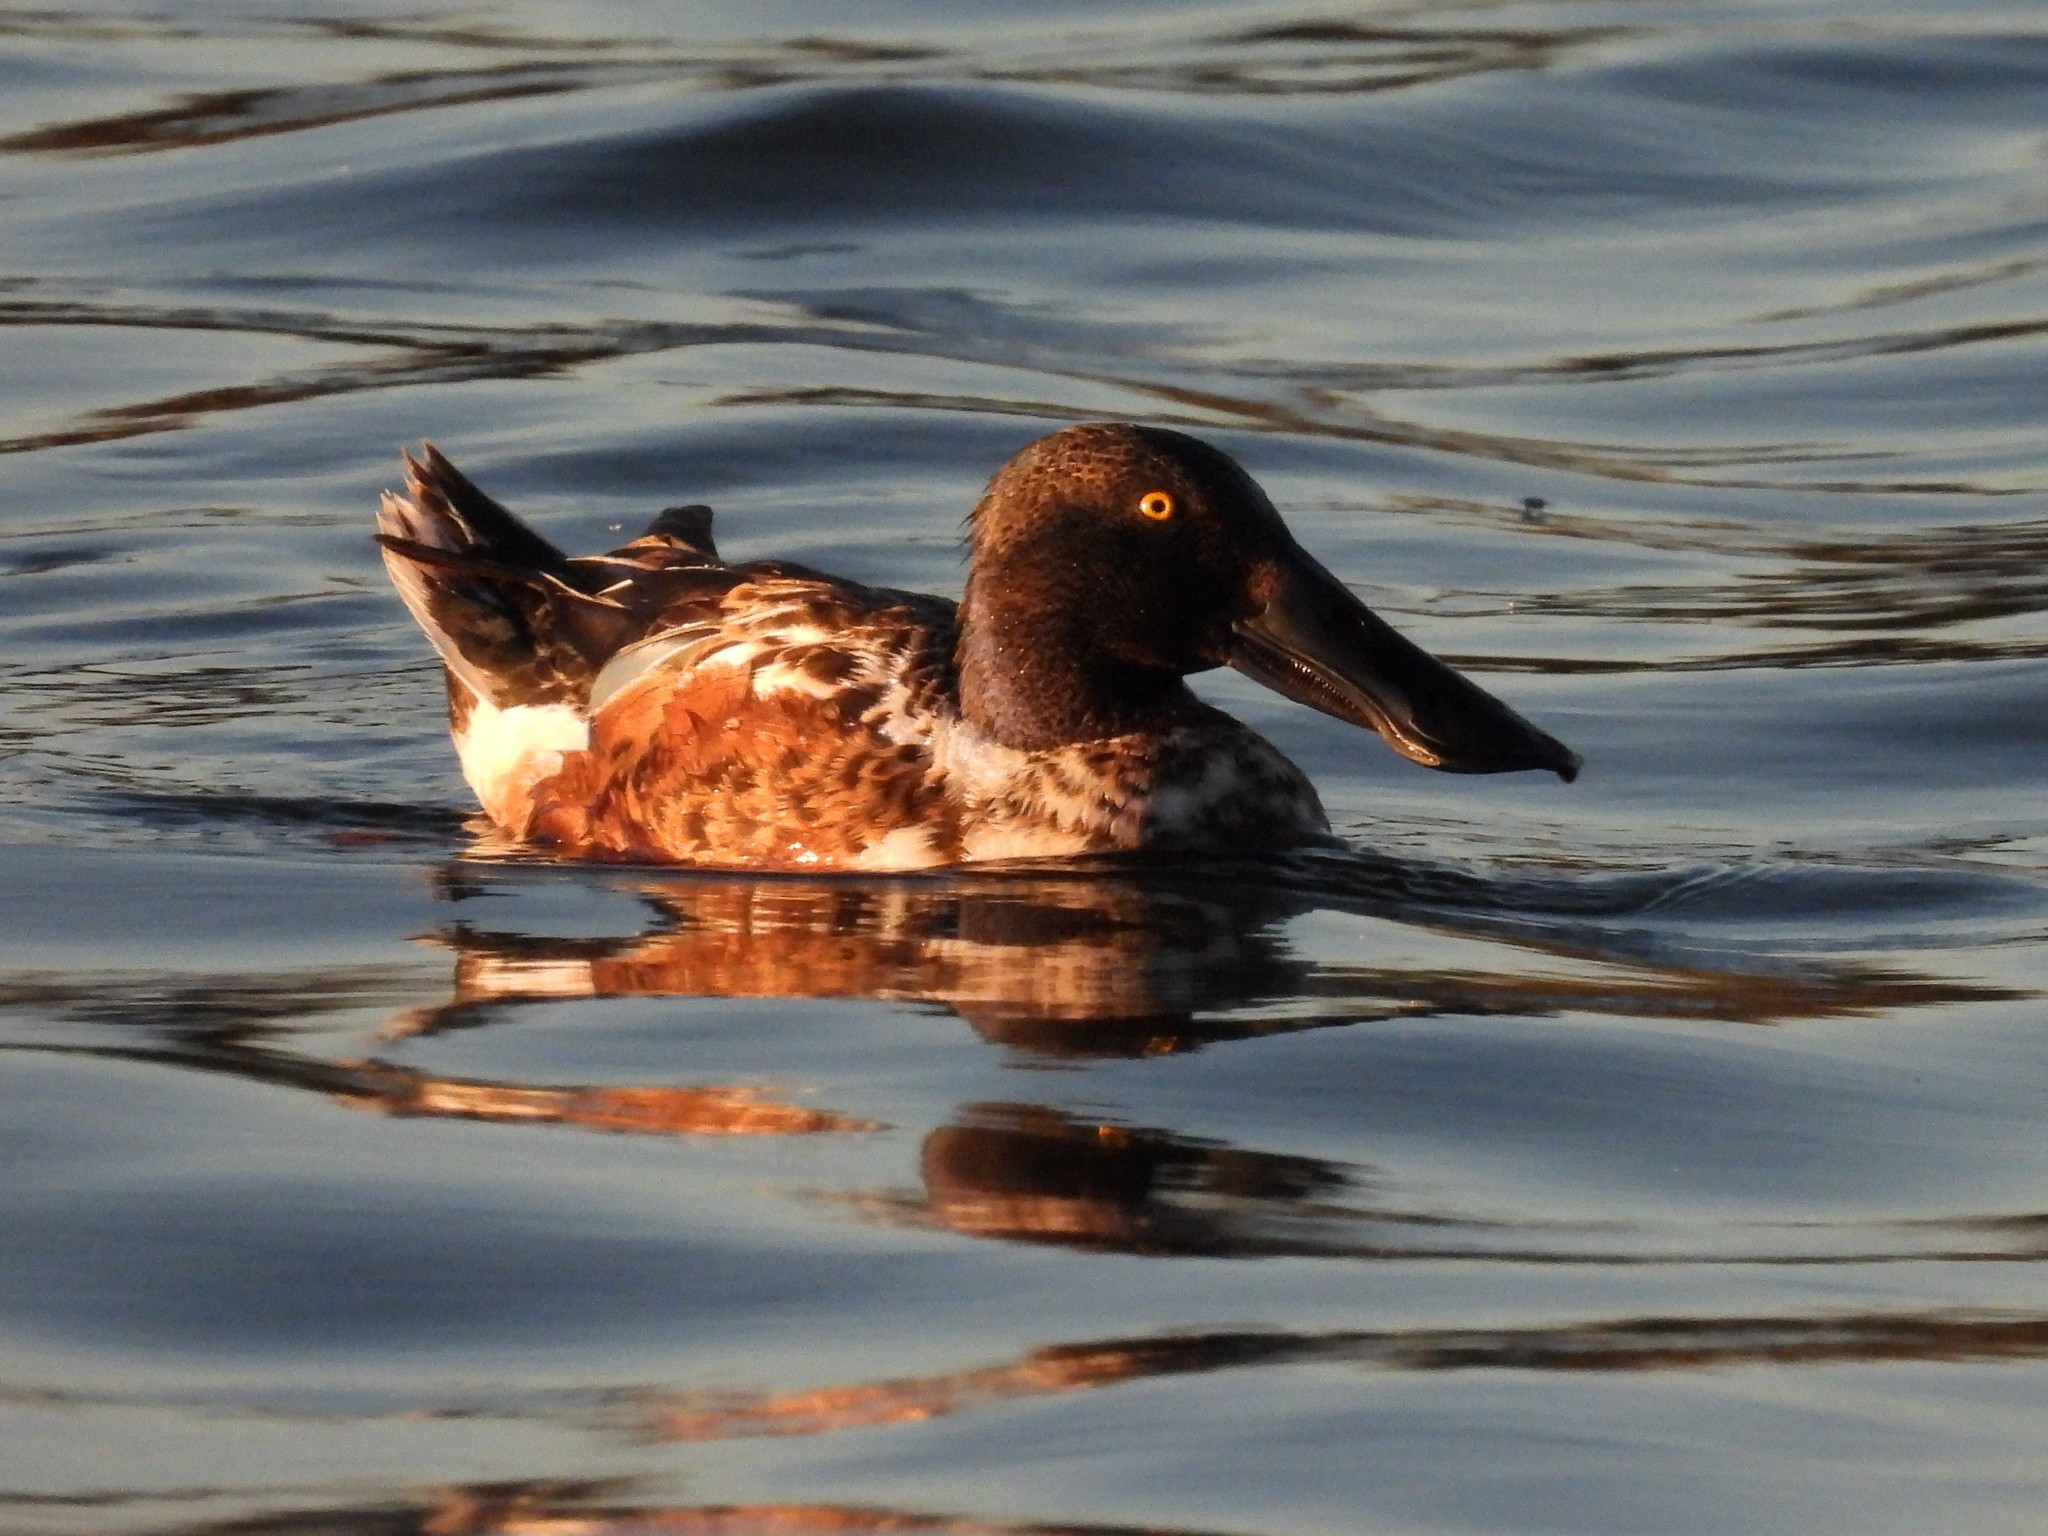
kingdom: Animalia
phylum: Chordata
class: Aves
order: Anseriformes
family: Anatidae
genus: Spatula
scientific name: Spatula clypeata
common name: Northern shoveler
